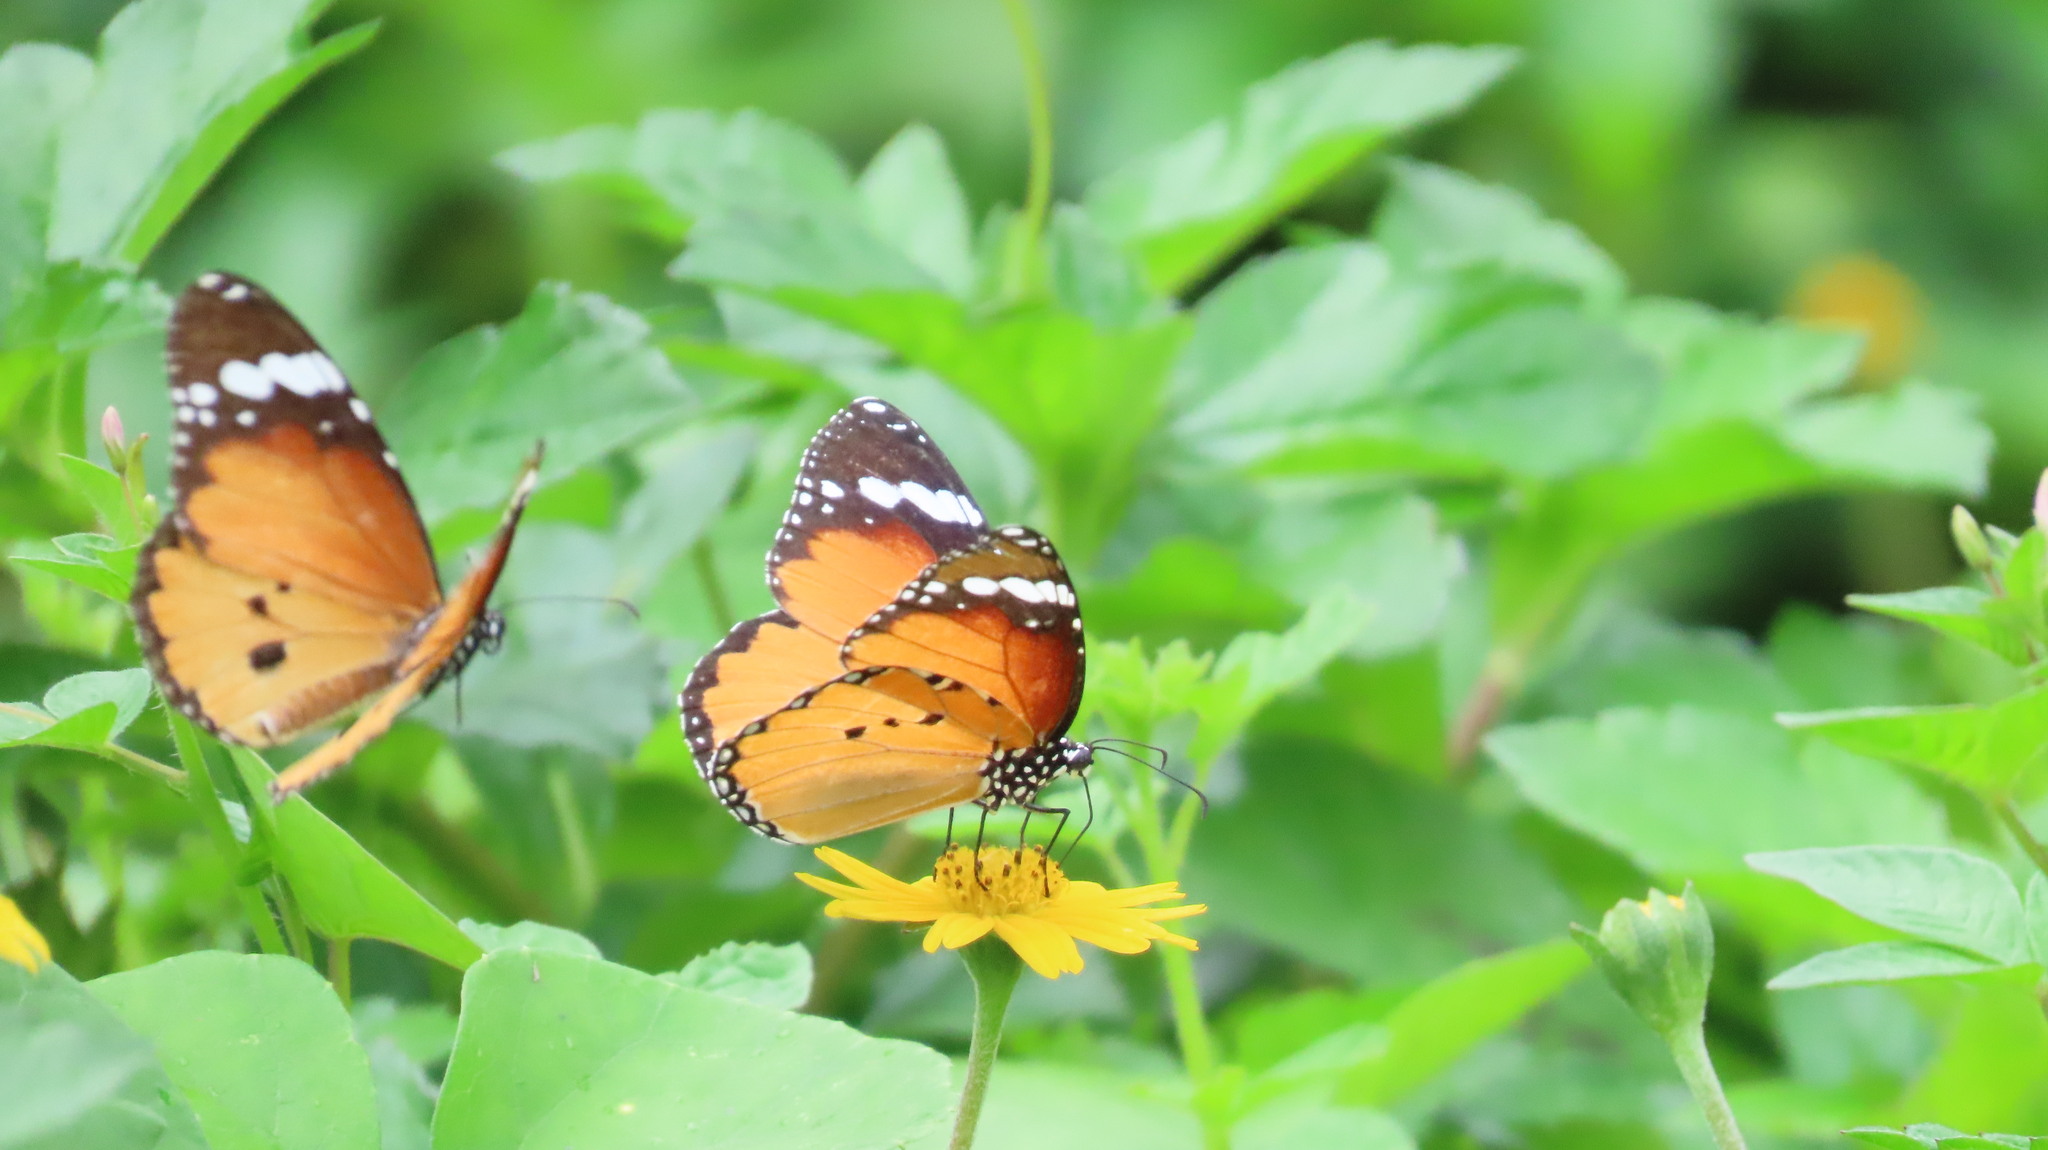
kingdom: Animalia
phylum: Arthropoda
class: Insecta
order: Lepidoptera
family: Nymphalidae
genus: Danaus
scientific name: Danaus chrysippus
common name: Plain tiger
